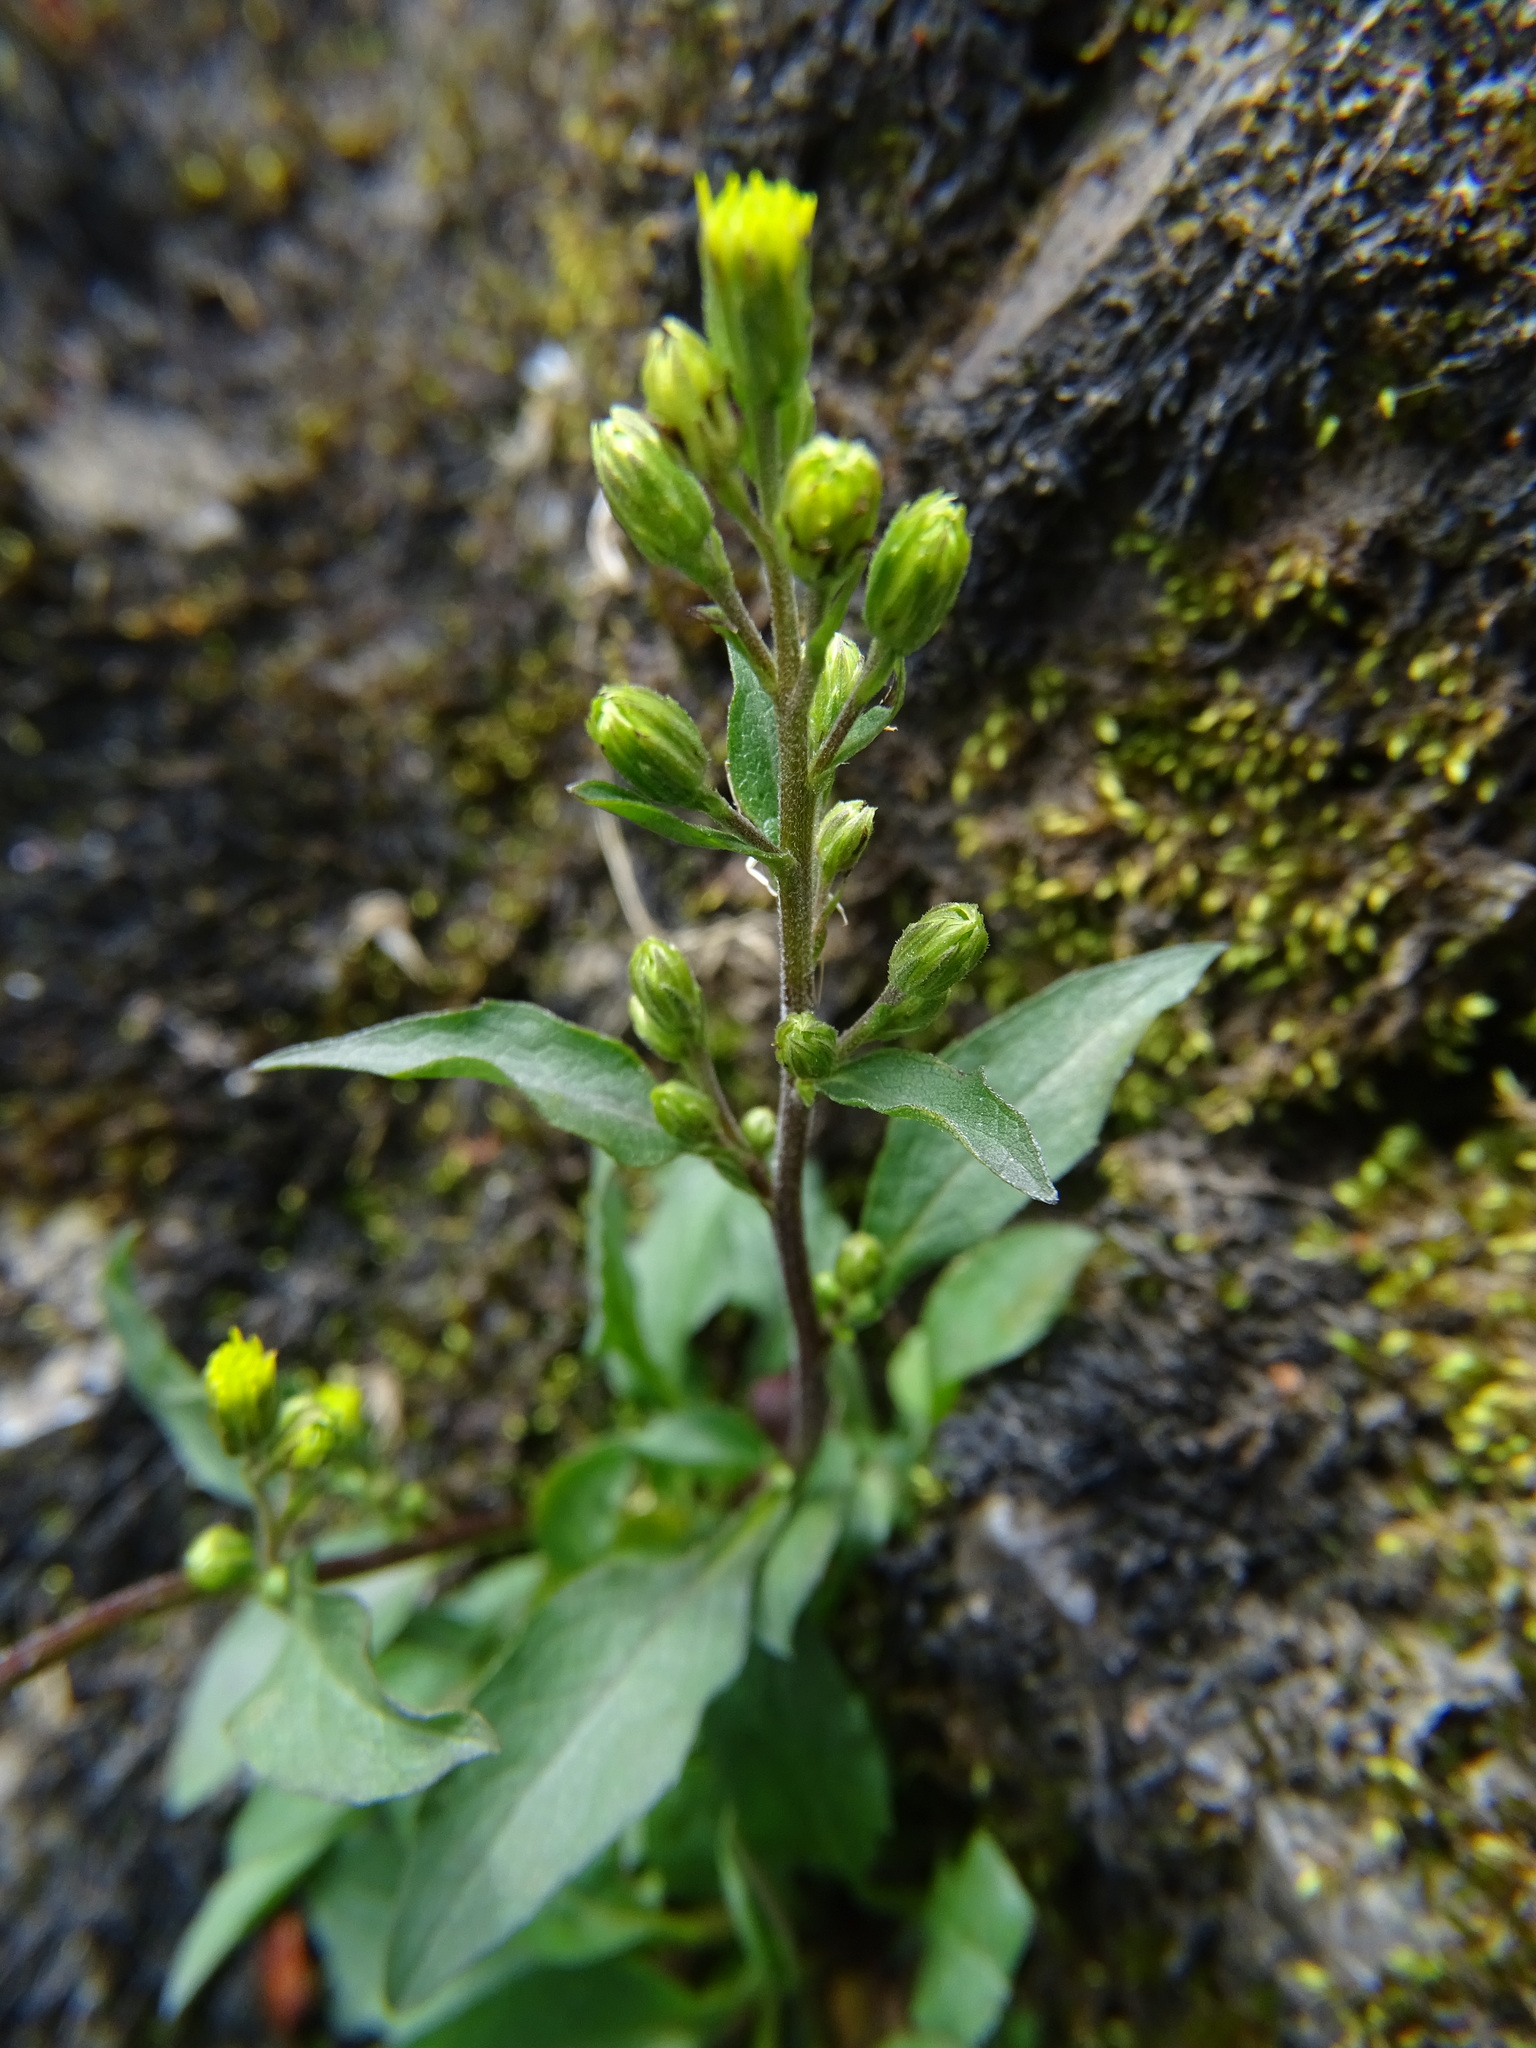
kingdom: Plantae
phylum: Tracheophyta
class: Magnoliopsida
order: Asterales
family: Asteraceae
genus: Solidago
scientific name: Solidago virgaurea
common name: Goldenrod
